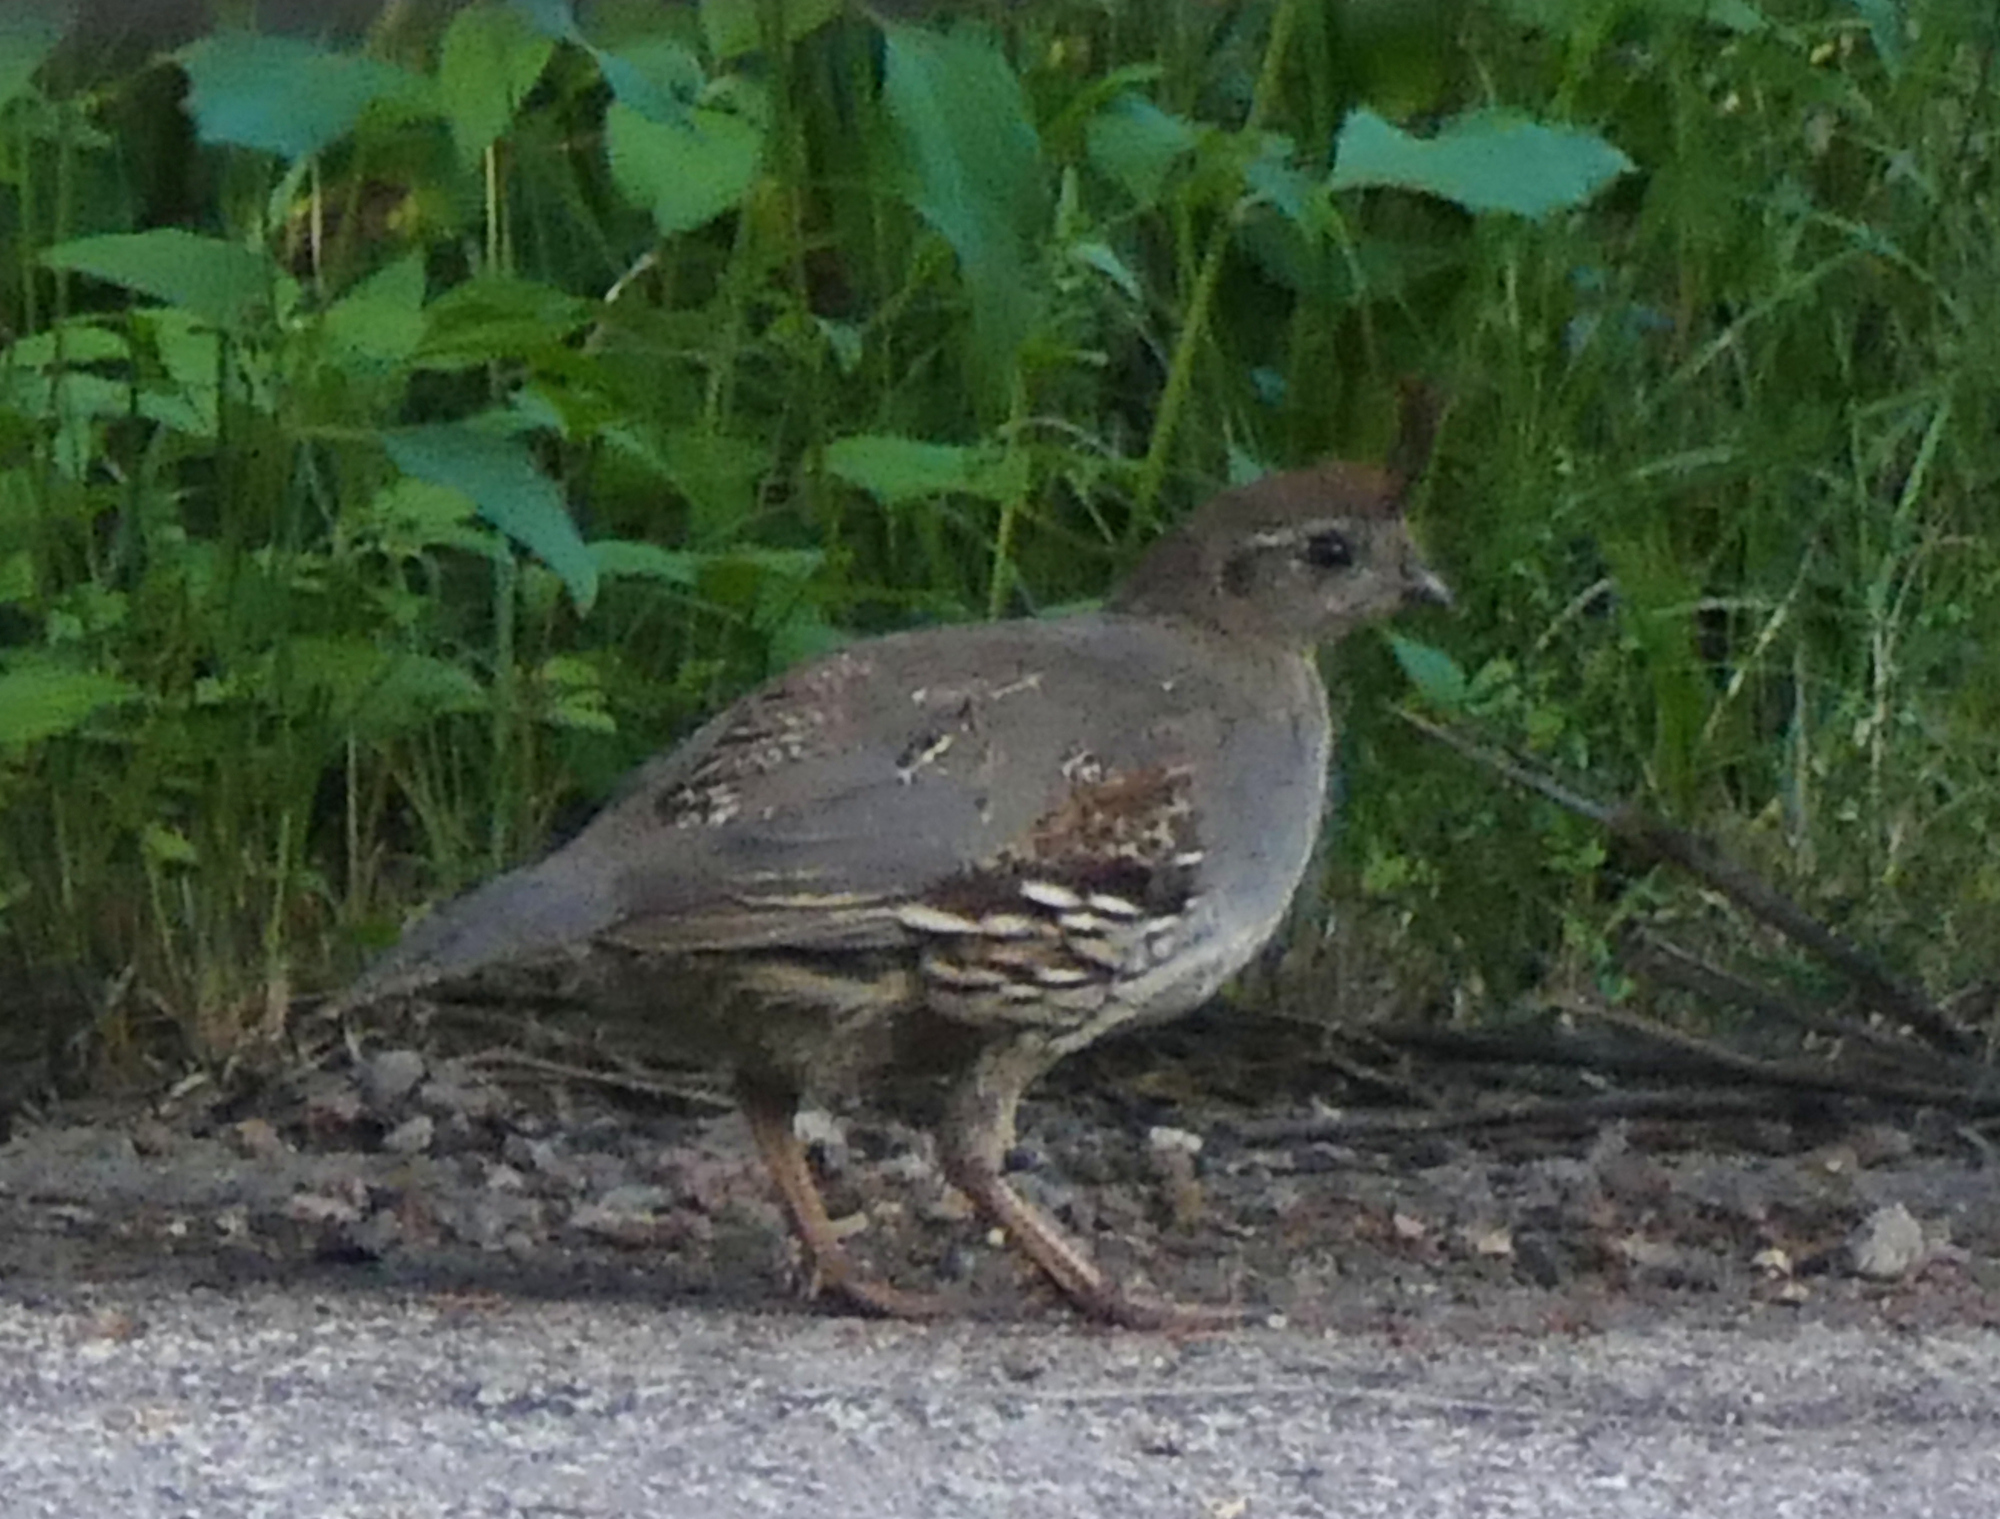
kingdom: Animalia
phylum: Chordata
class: Aves
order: Galliformes
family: Odontophoridae
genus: Callipepla
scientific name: Callipepla gambelii
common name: Gambel's quail
